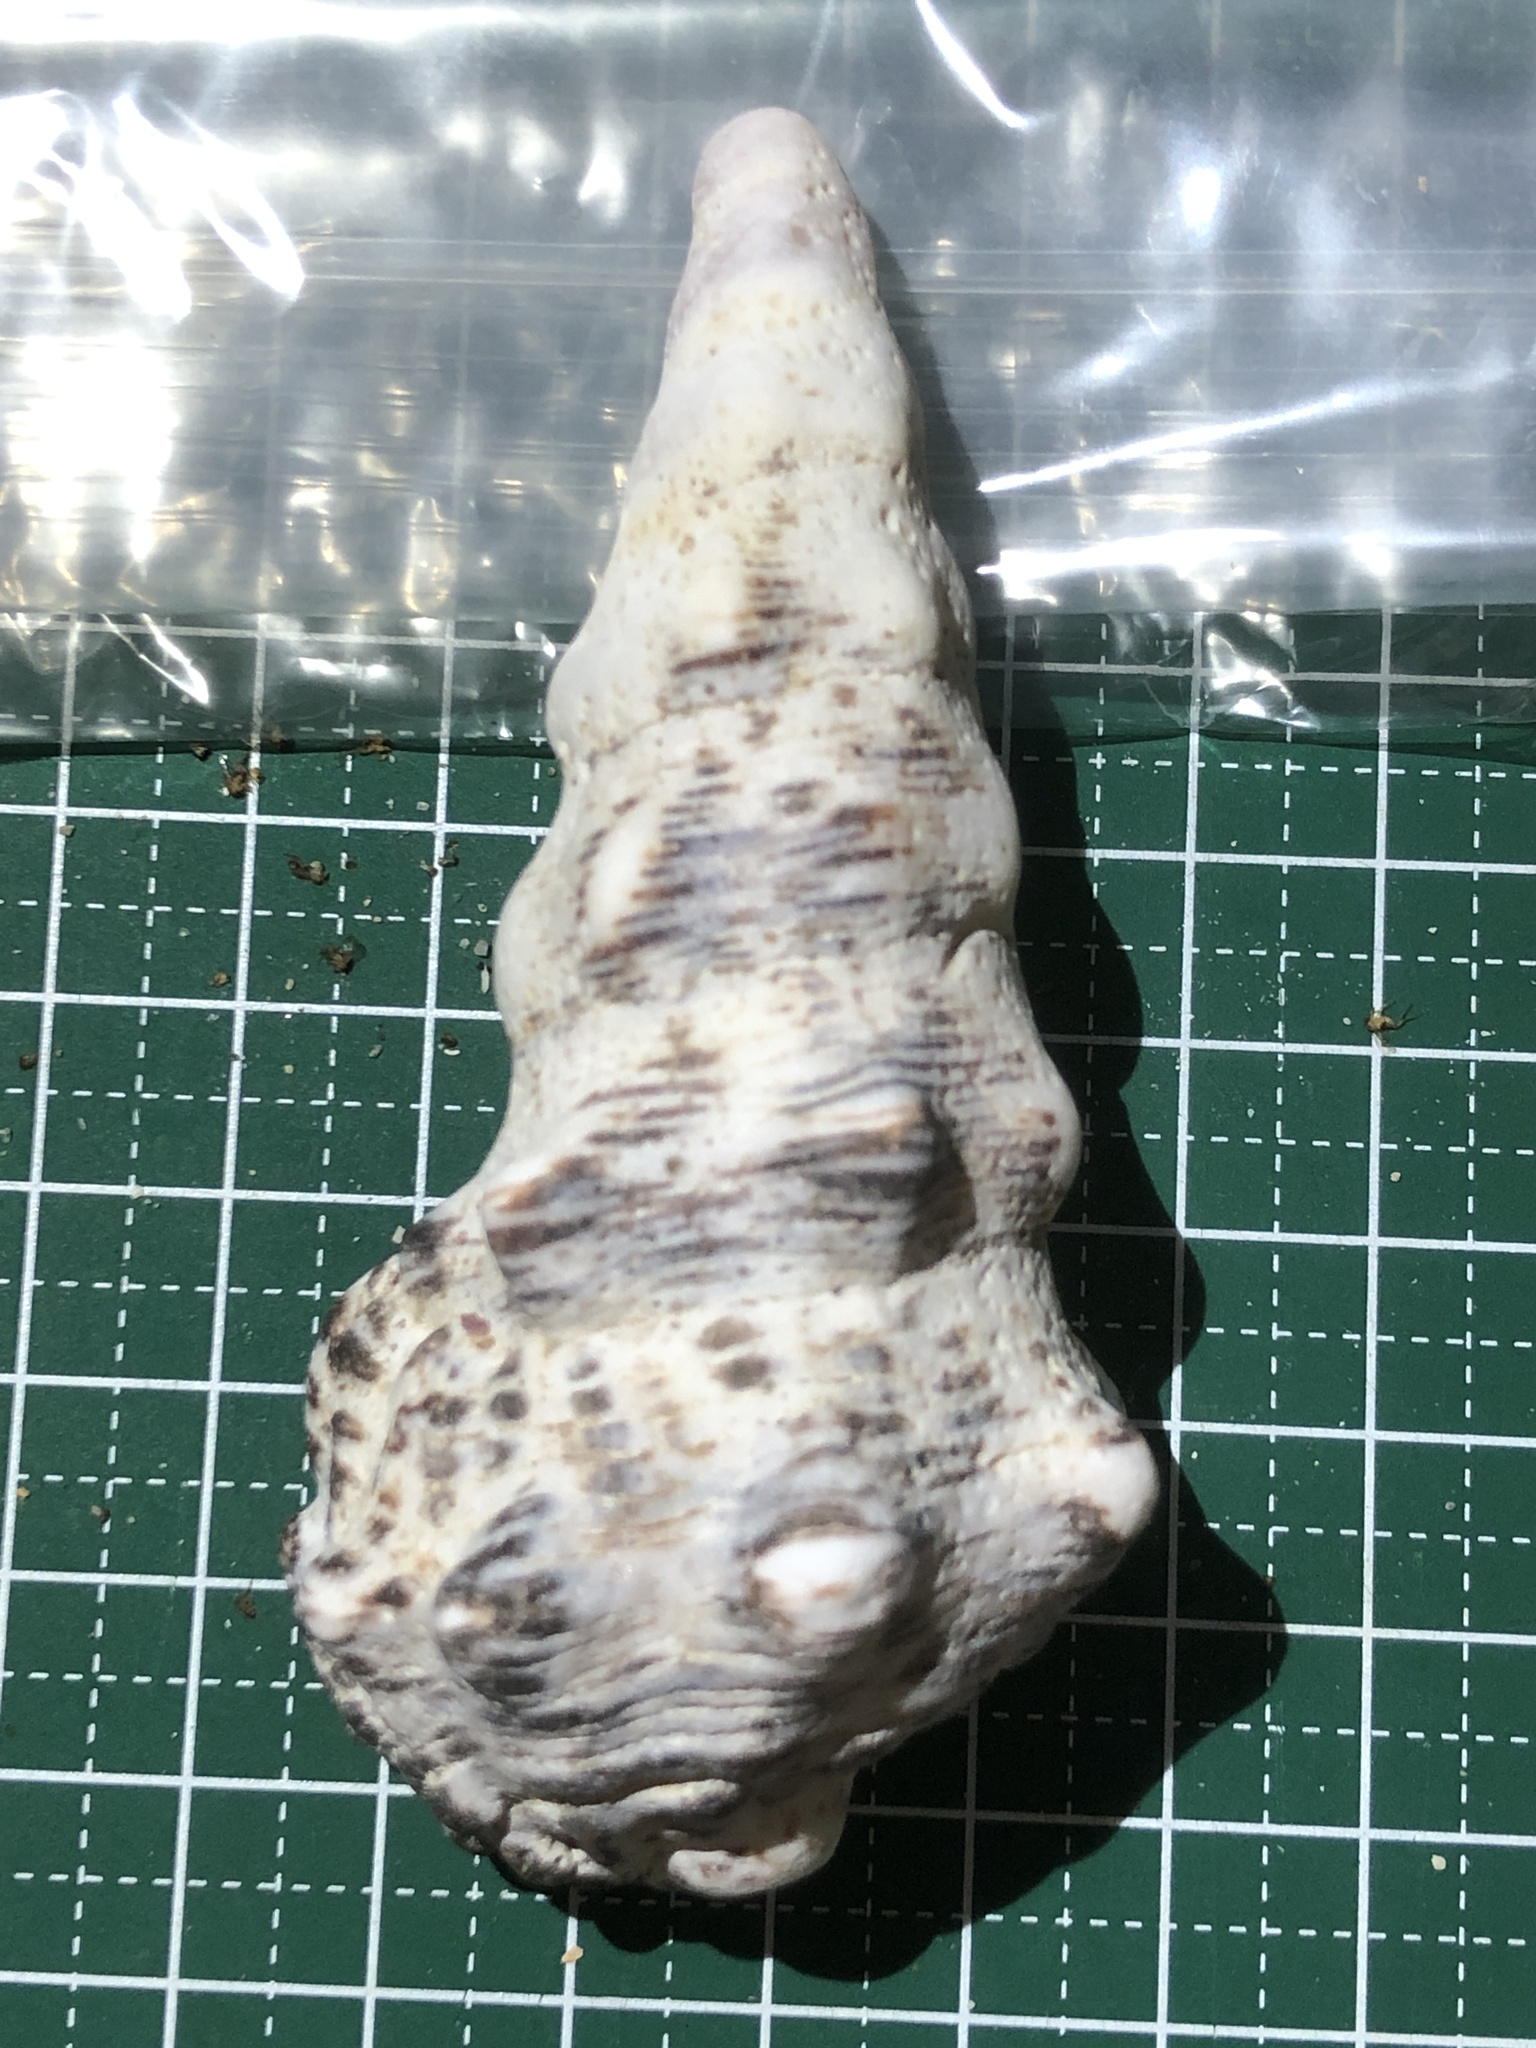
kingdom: Animalia
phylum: Mollusca
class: Gastropoda
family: Cerithiidae
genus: Cerithium
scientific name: Cerithium nodulosum
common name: Nadelschnecke giant knobbed cerith
